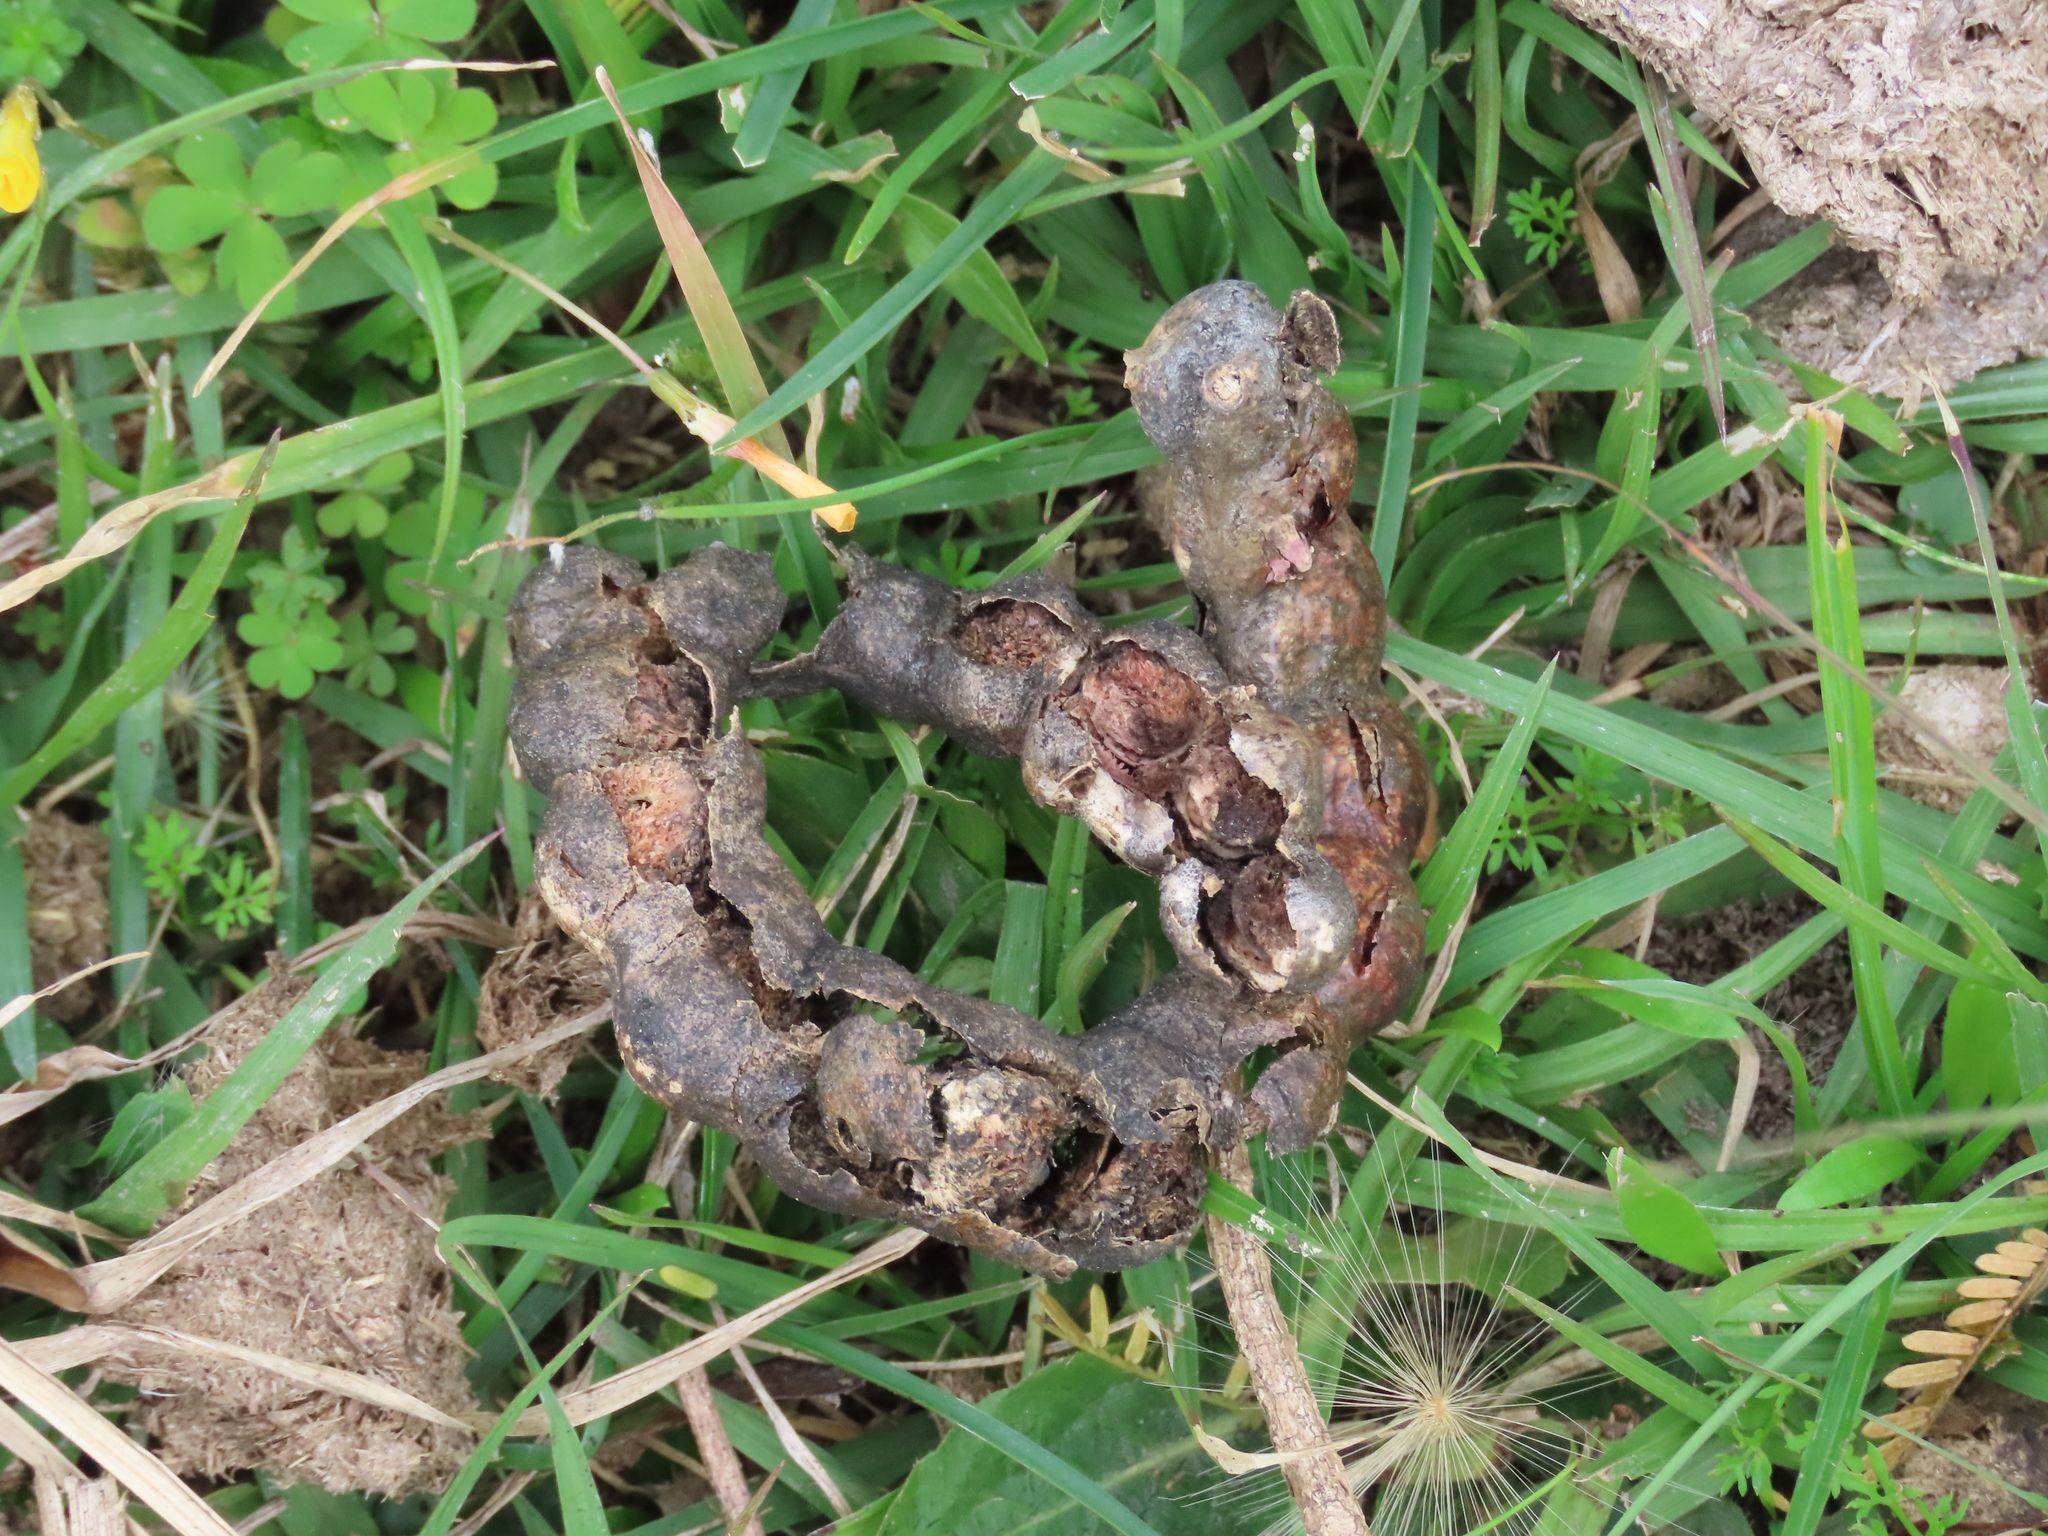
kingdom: Plantae
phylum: Tracheophyta
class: Magnoliopsida
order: Fabales
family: Fabaceae
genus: Prosopis
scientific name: Prosopis affinis
